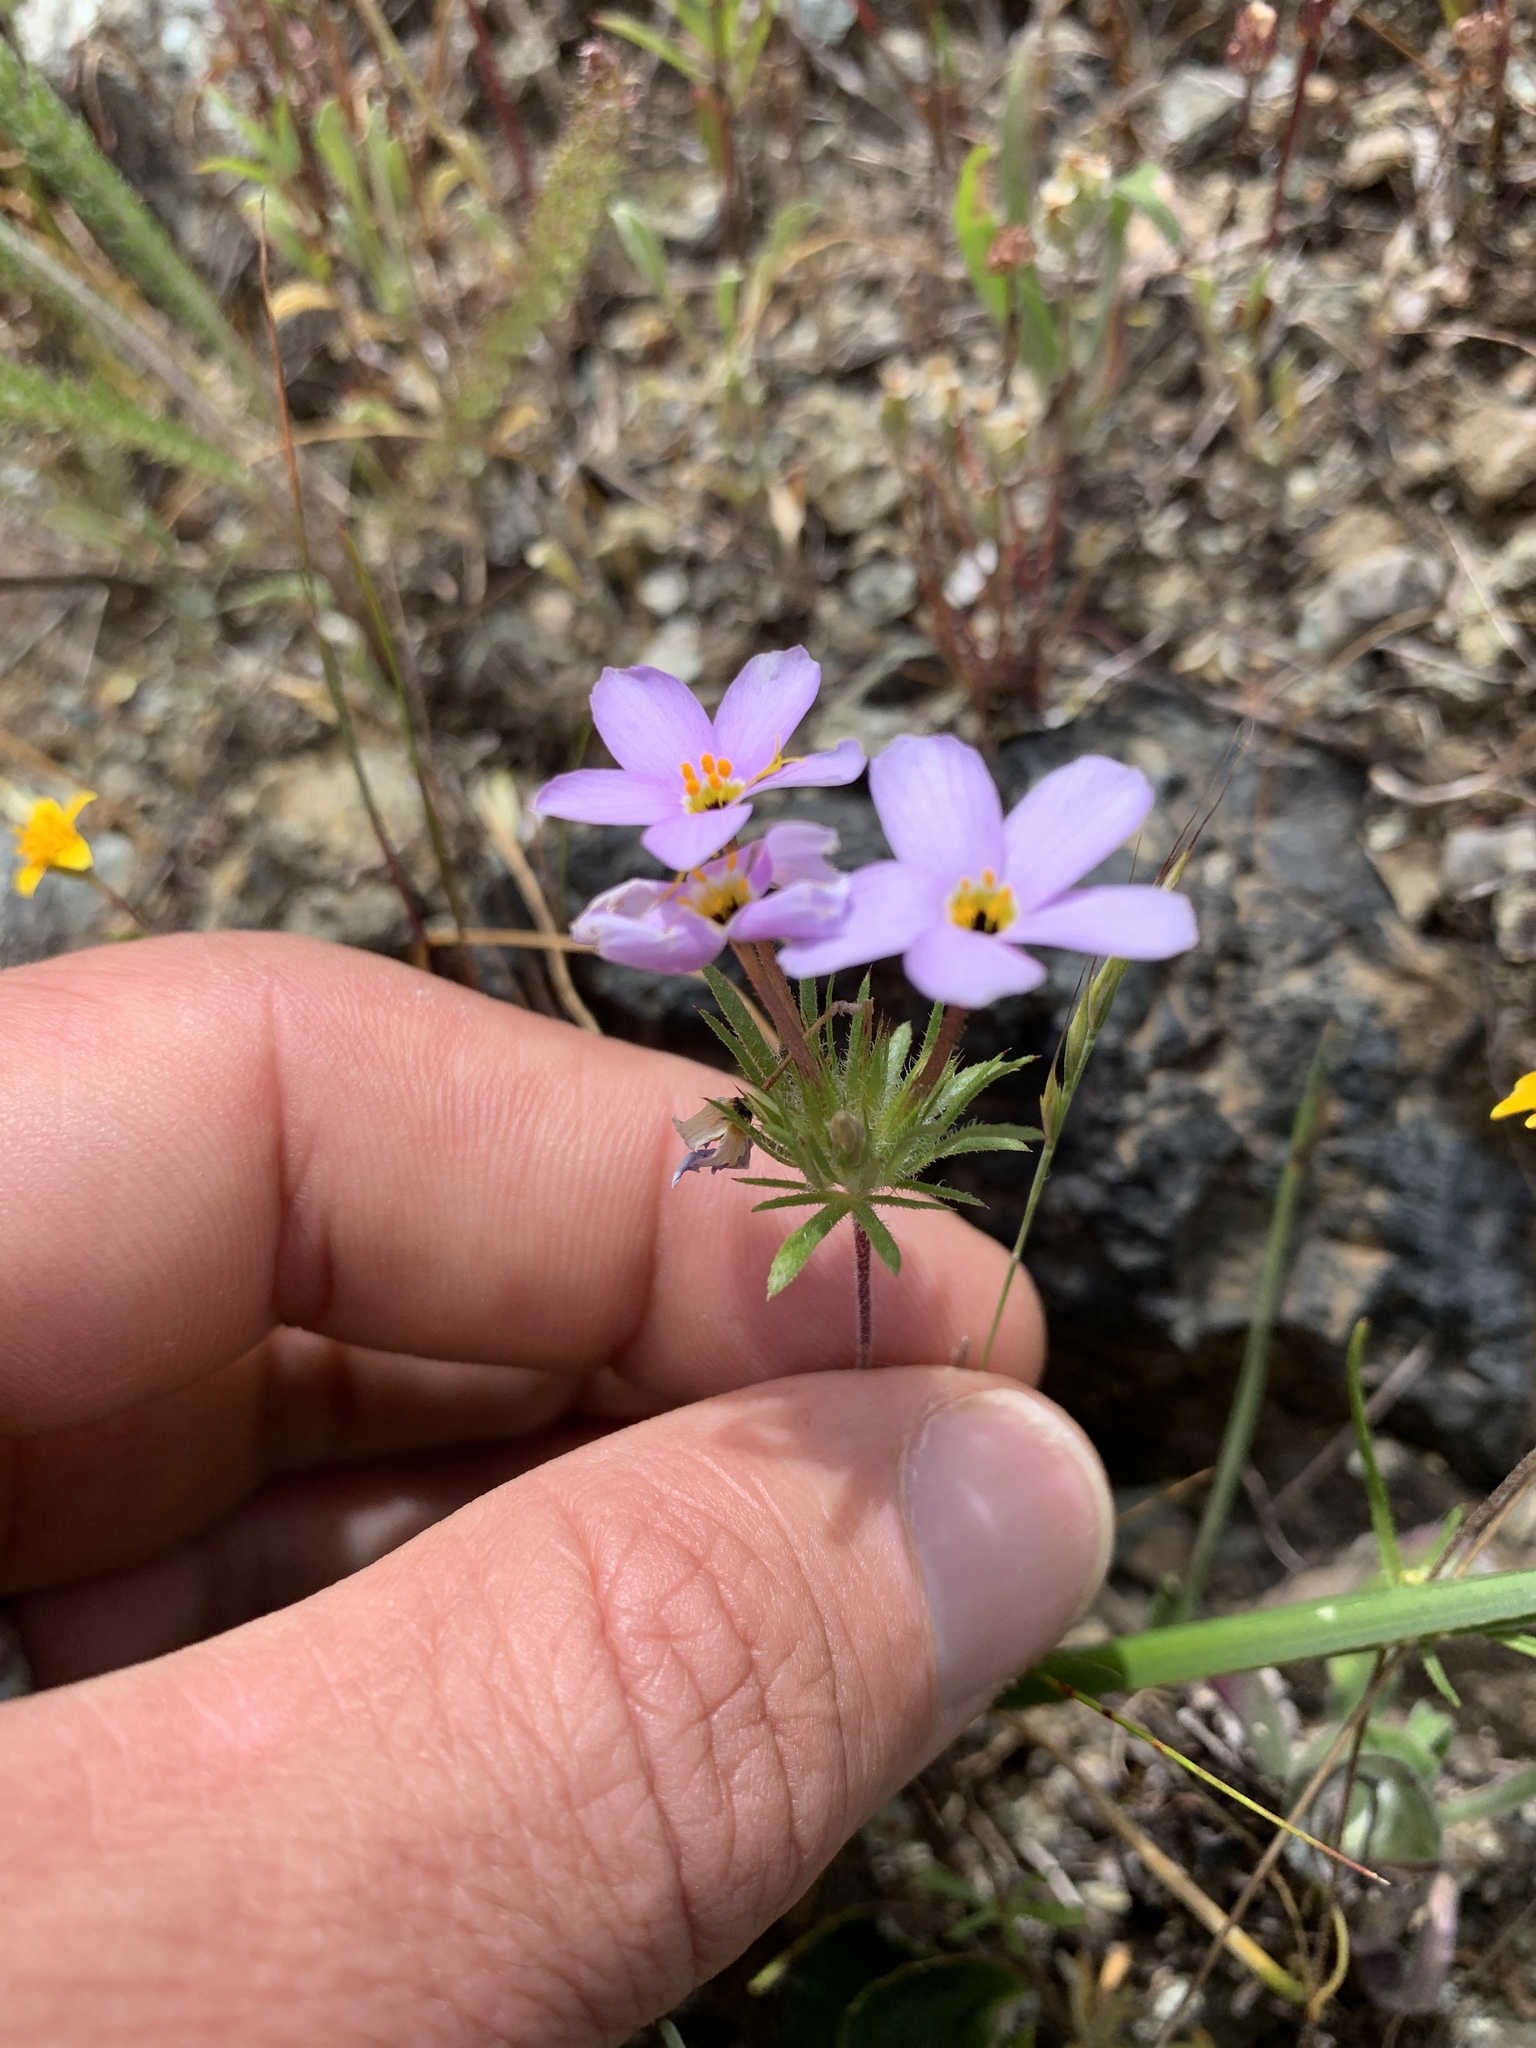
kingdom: Plantae
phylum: Tracheophyta
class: Magnoliopsida
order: Ericales
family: Polemoniaceae
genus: Leptosiphon
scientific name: Leptosiphon androsaceus
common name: False babystars
